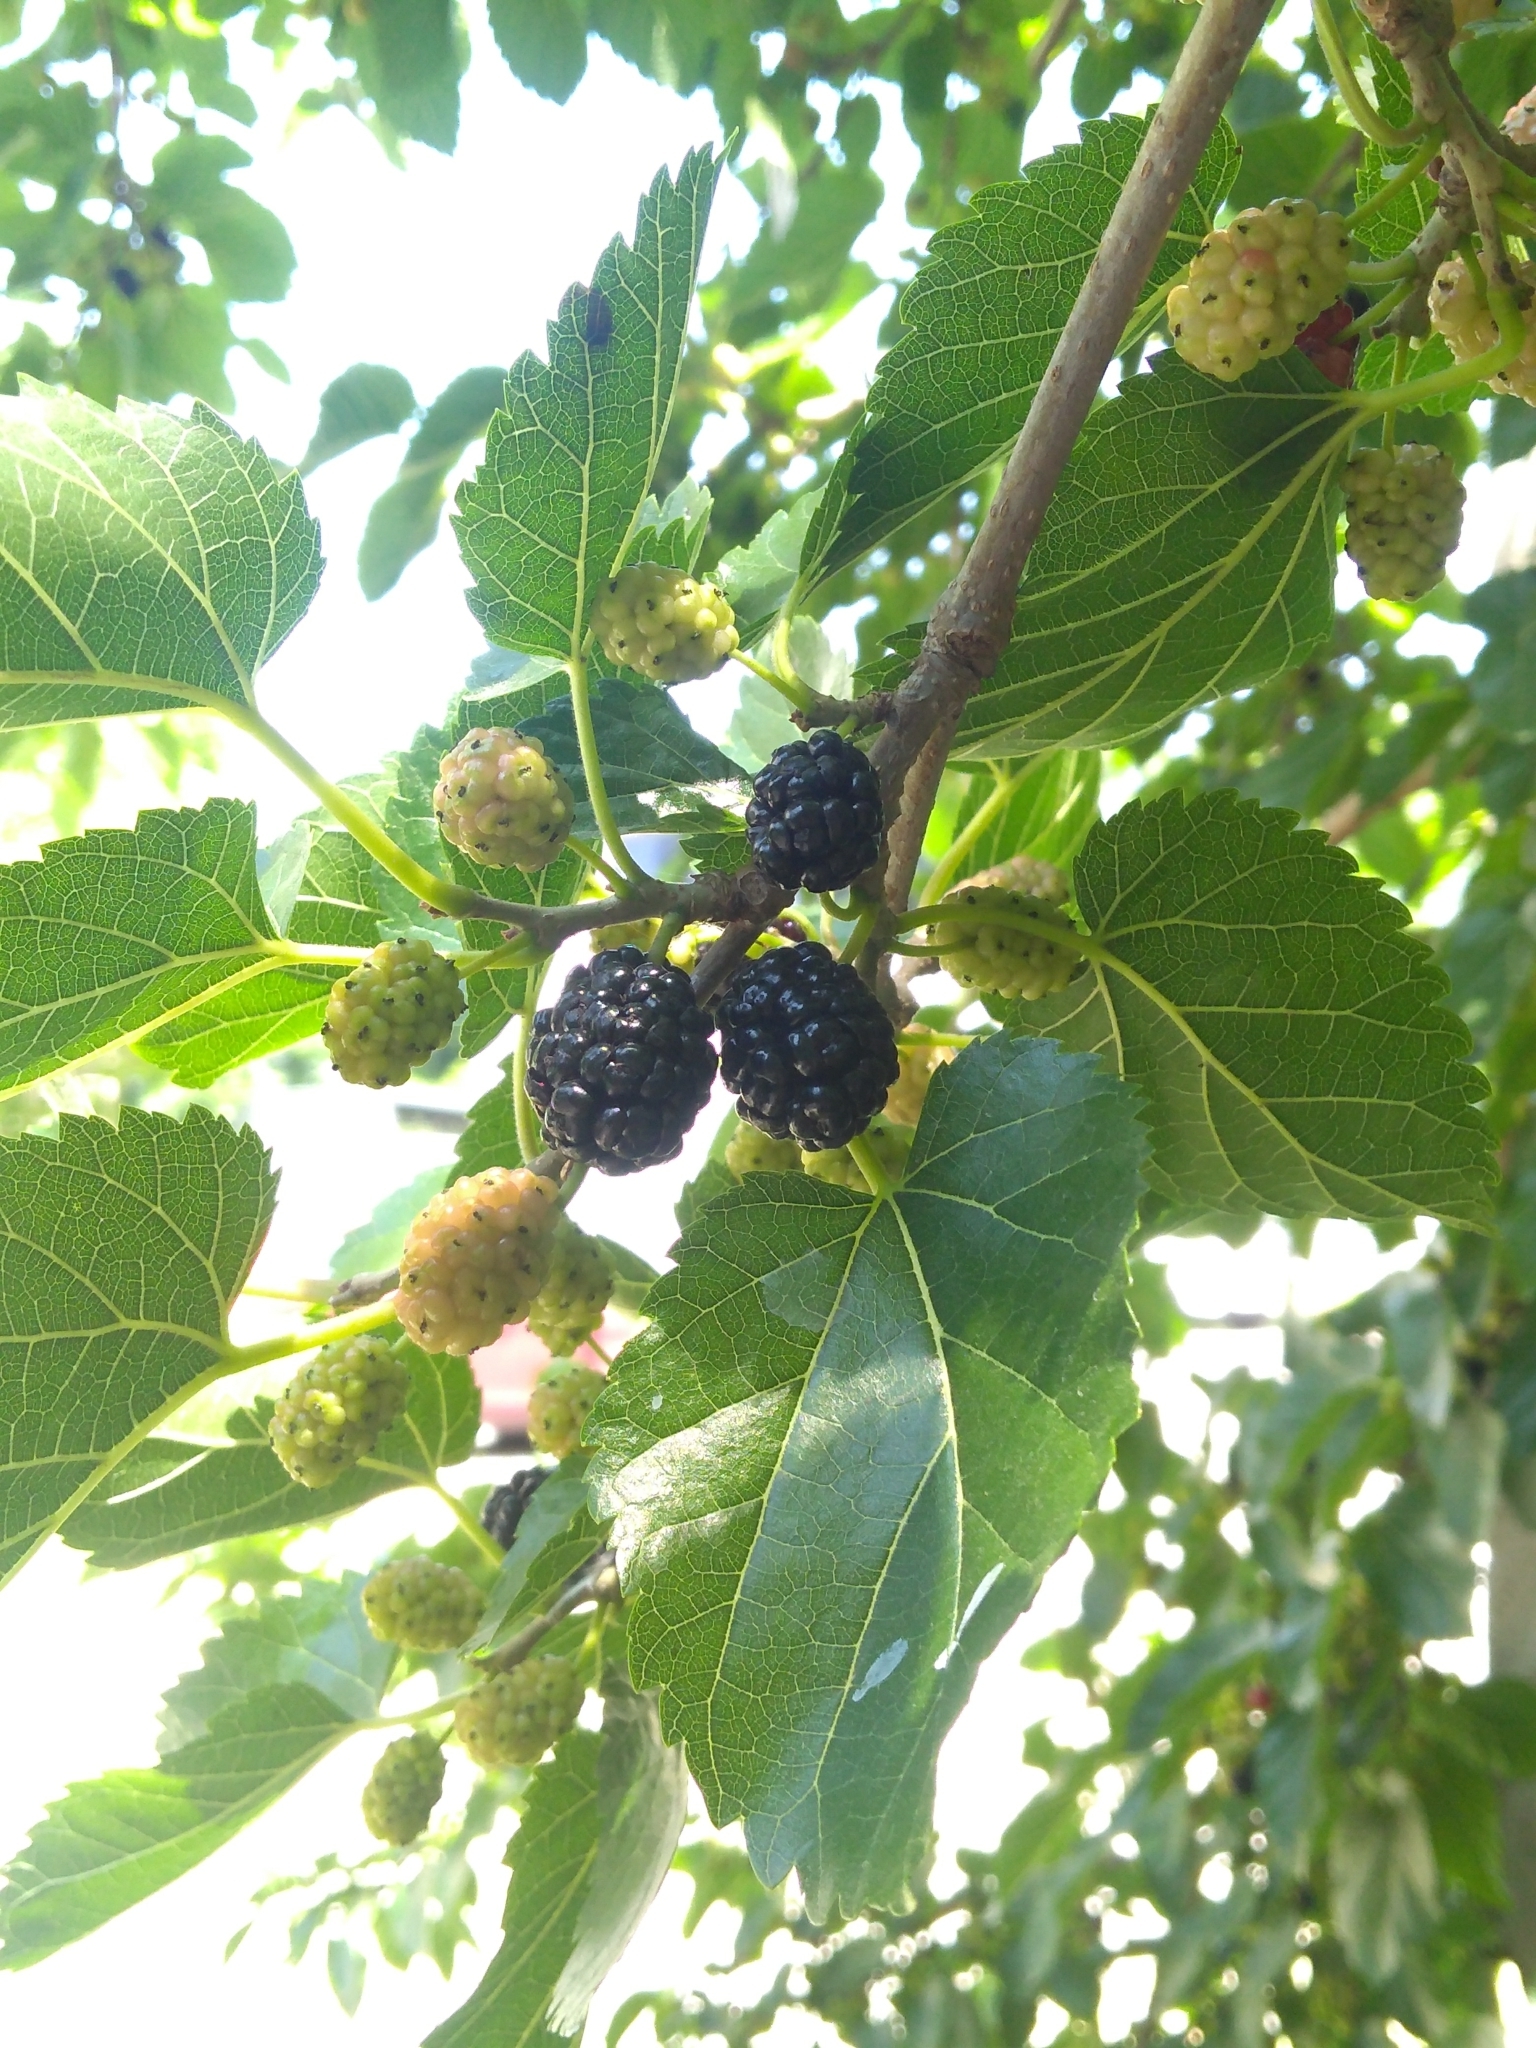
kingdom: Plantae
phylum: Tracheophyta
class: Magnoliopsida
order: Rosales
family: Moraceae
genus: Morus
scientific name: Morus nigra
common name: Black mulberry
